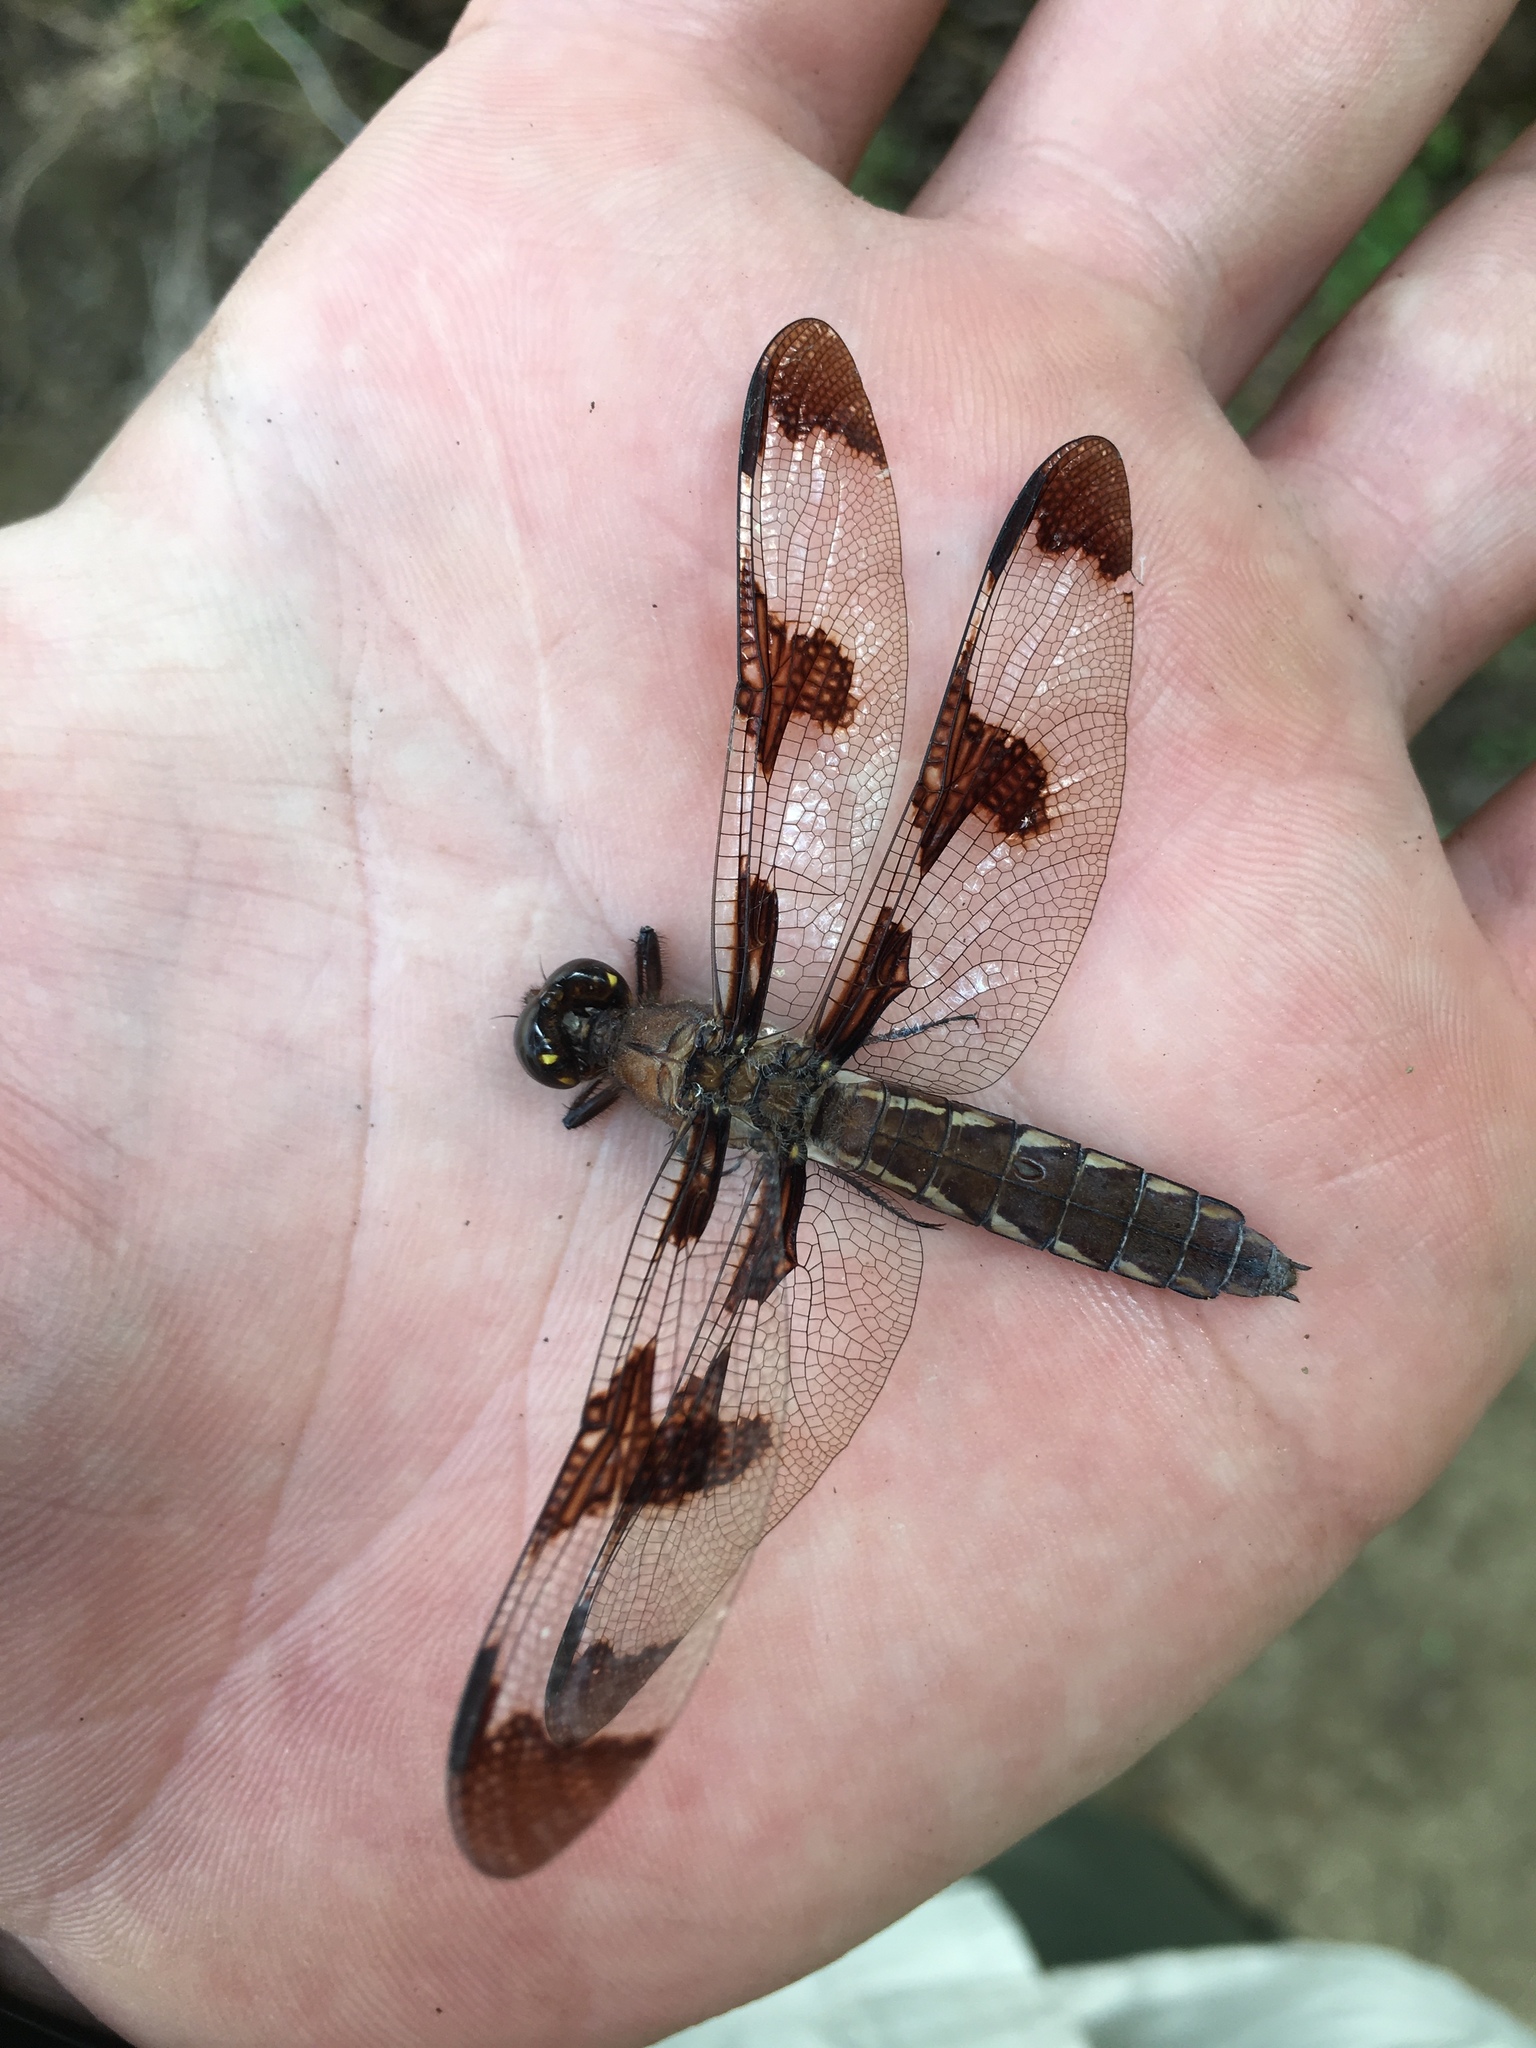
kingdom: Animalia
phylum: Arthropoda
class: Insecta
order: Odonata
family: Libellulidae
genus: Plathemis
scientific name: Plathemis lydia
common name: Common whitetail
